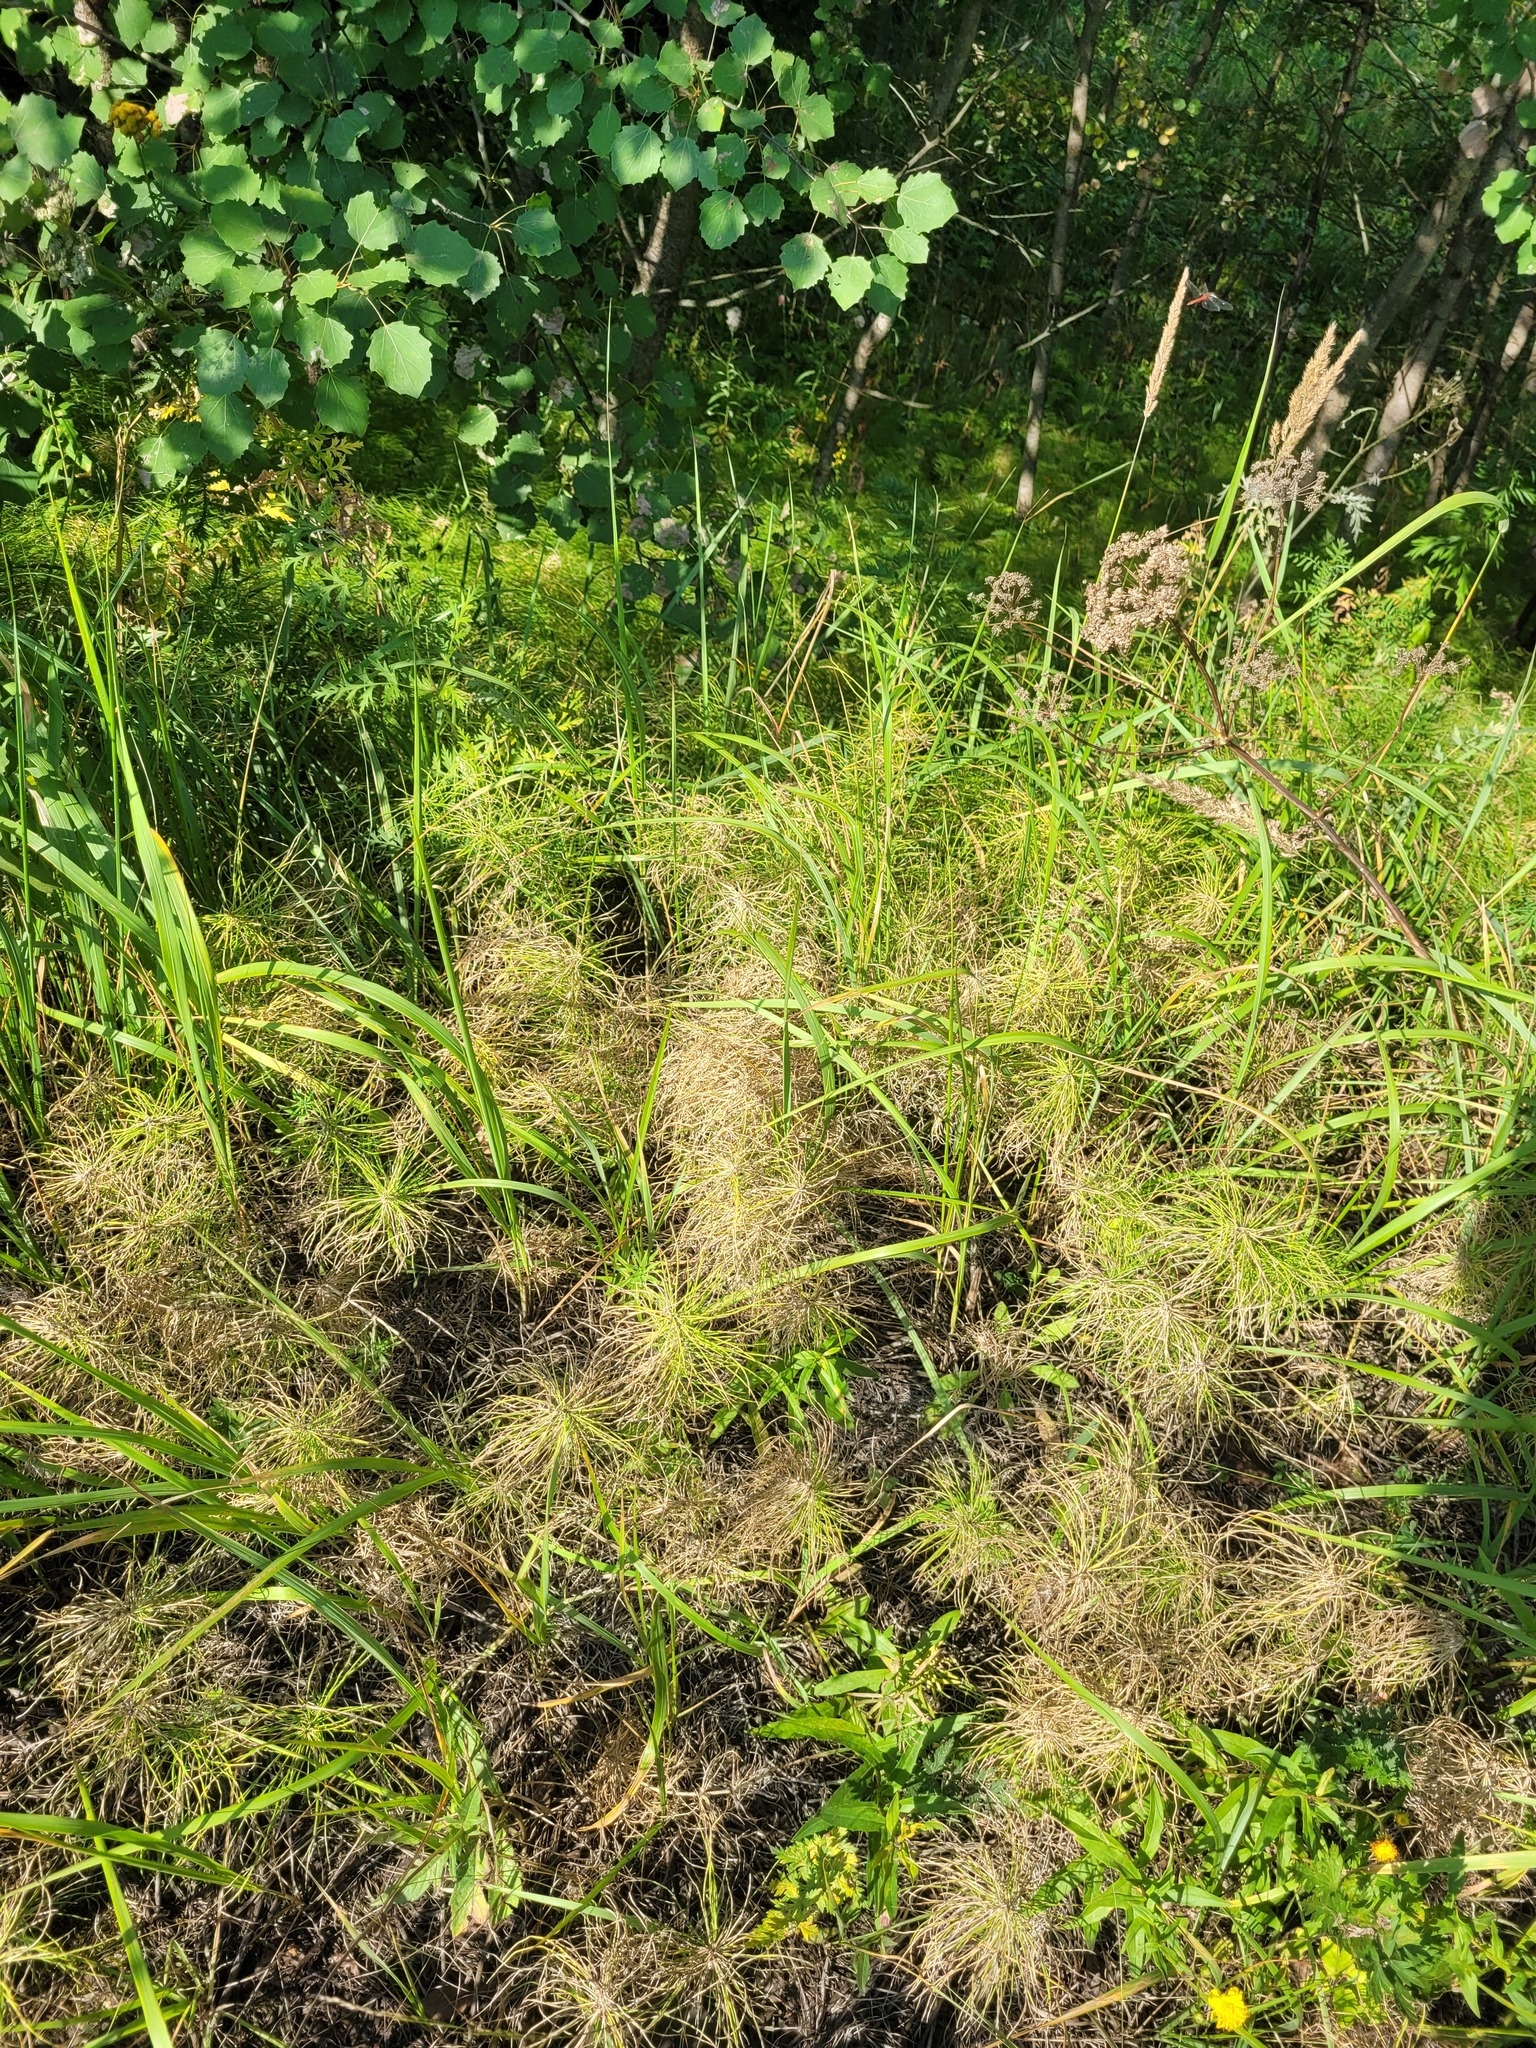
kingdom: Plantae
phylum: Tracheophyta
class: Polypodiopsida
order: Equisetales
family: Equisetaceae
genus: Equisetum
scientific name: Equisetum pratense
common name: Meadow horsetail
